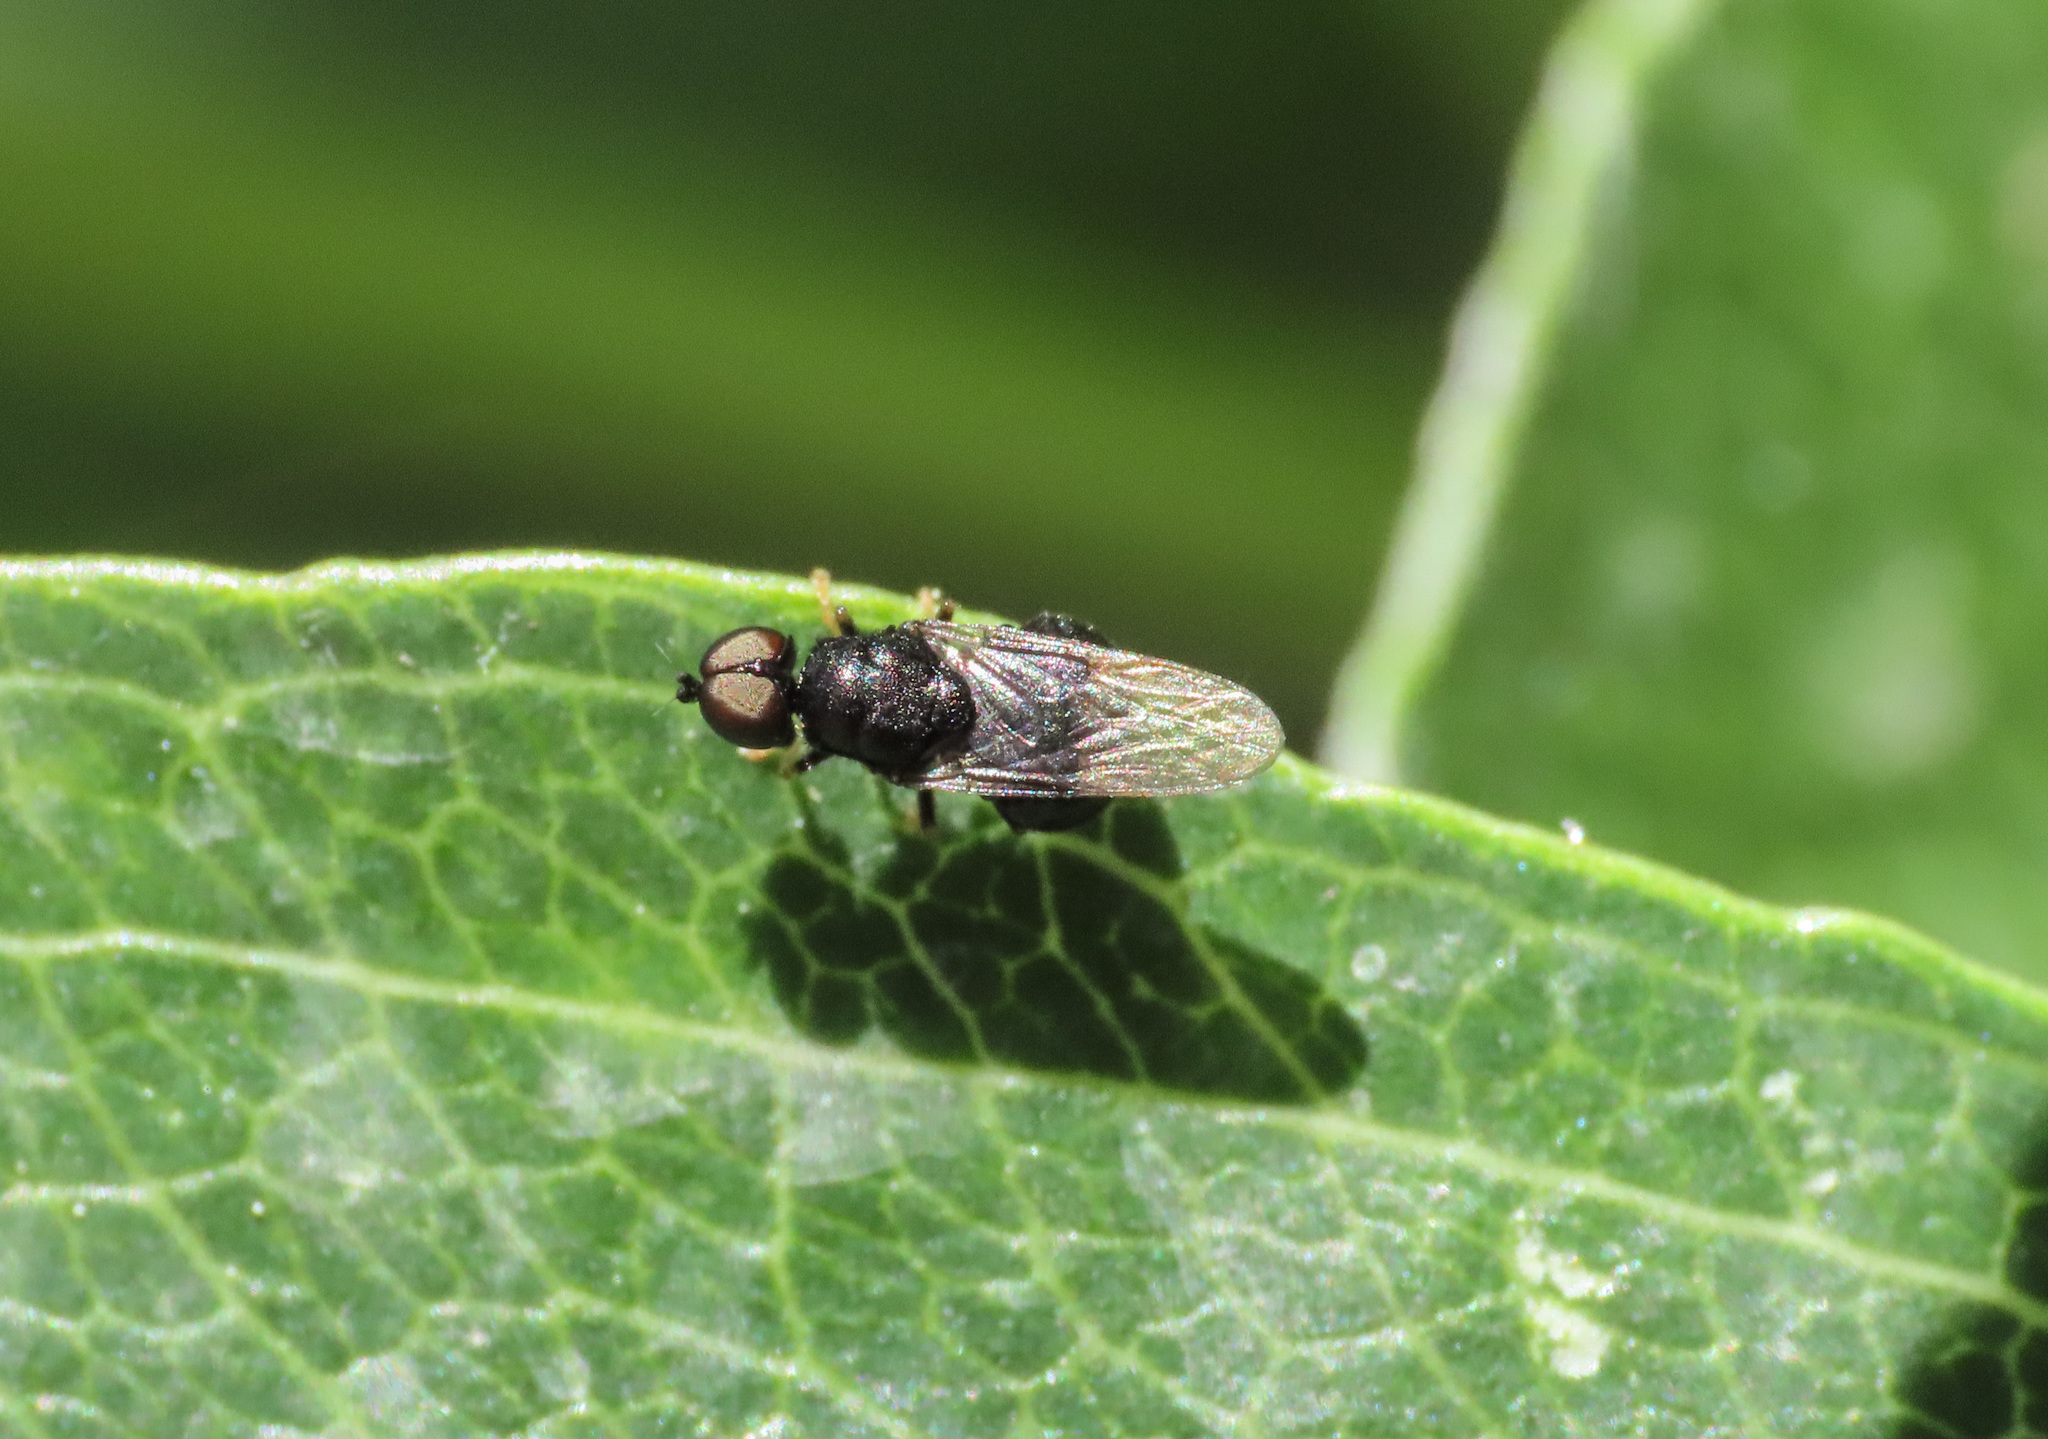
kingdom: Animalia
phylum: Arthropoda
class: Insecta
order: Diptera
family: Stratiomyidae
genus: Pachygaster
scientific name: Pachygaster atra
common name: Dark-winged black
